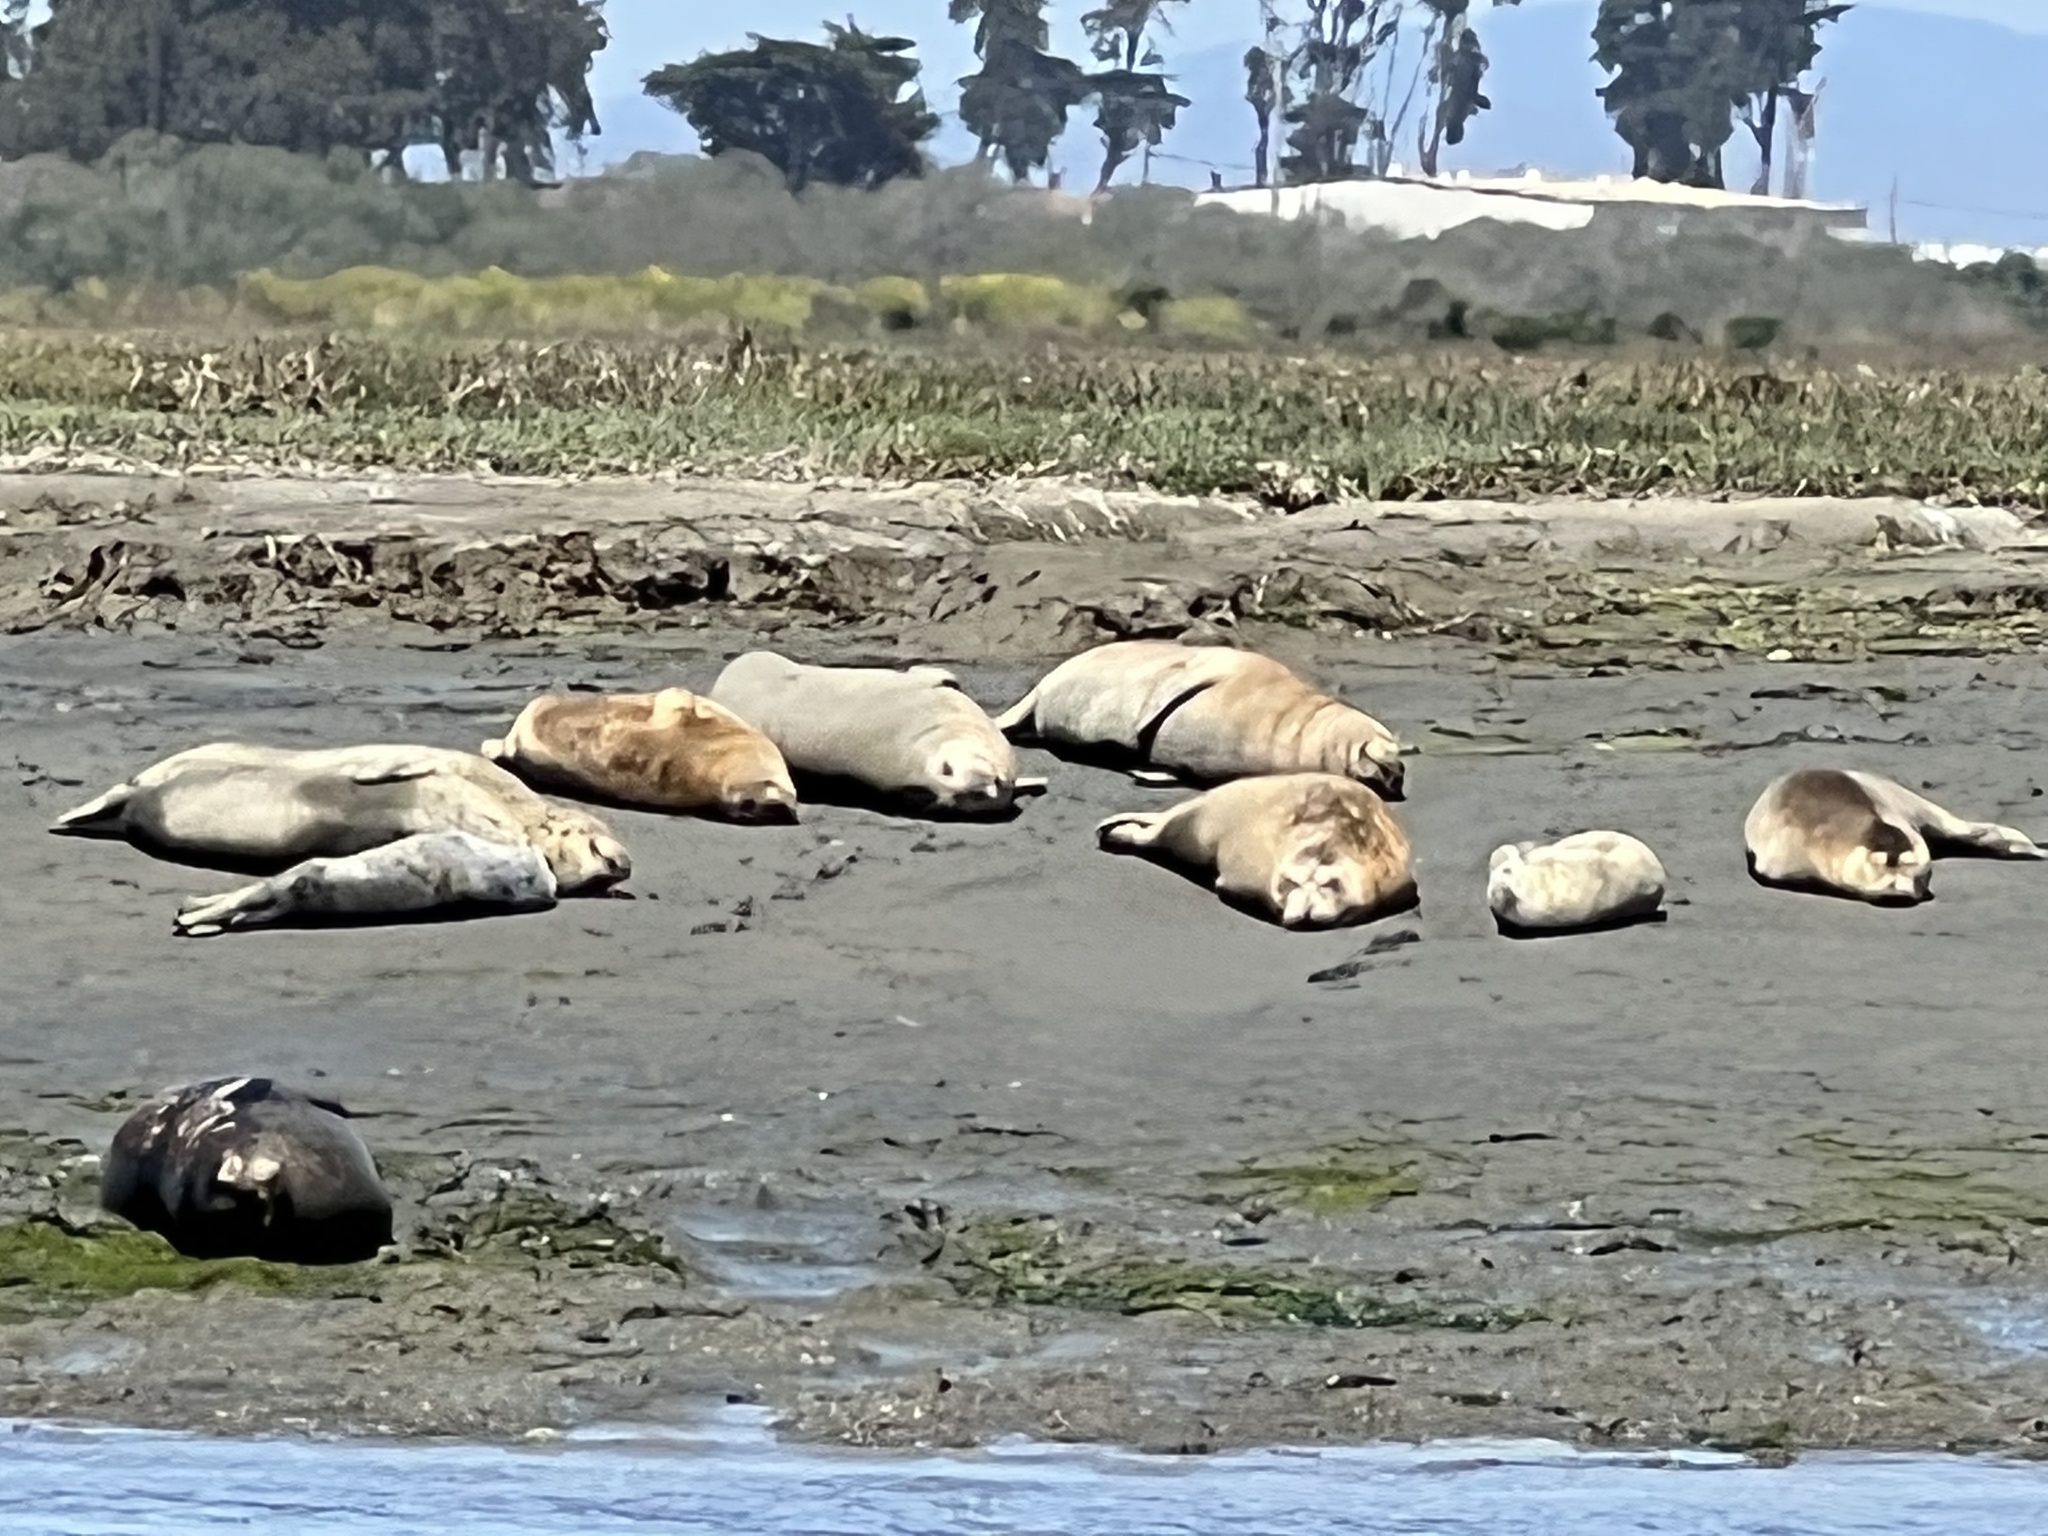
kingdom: Animalia
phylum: Chordata
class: Mammalia
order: Carnivora
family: Phocidae
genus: Phoca
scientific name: Phoca vitulina
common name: Harbor seal
